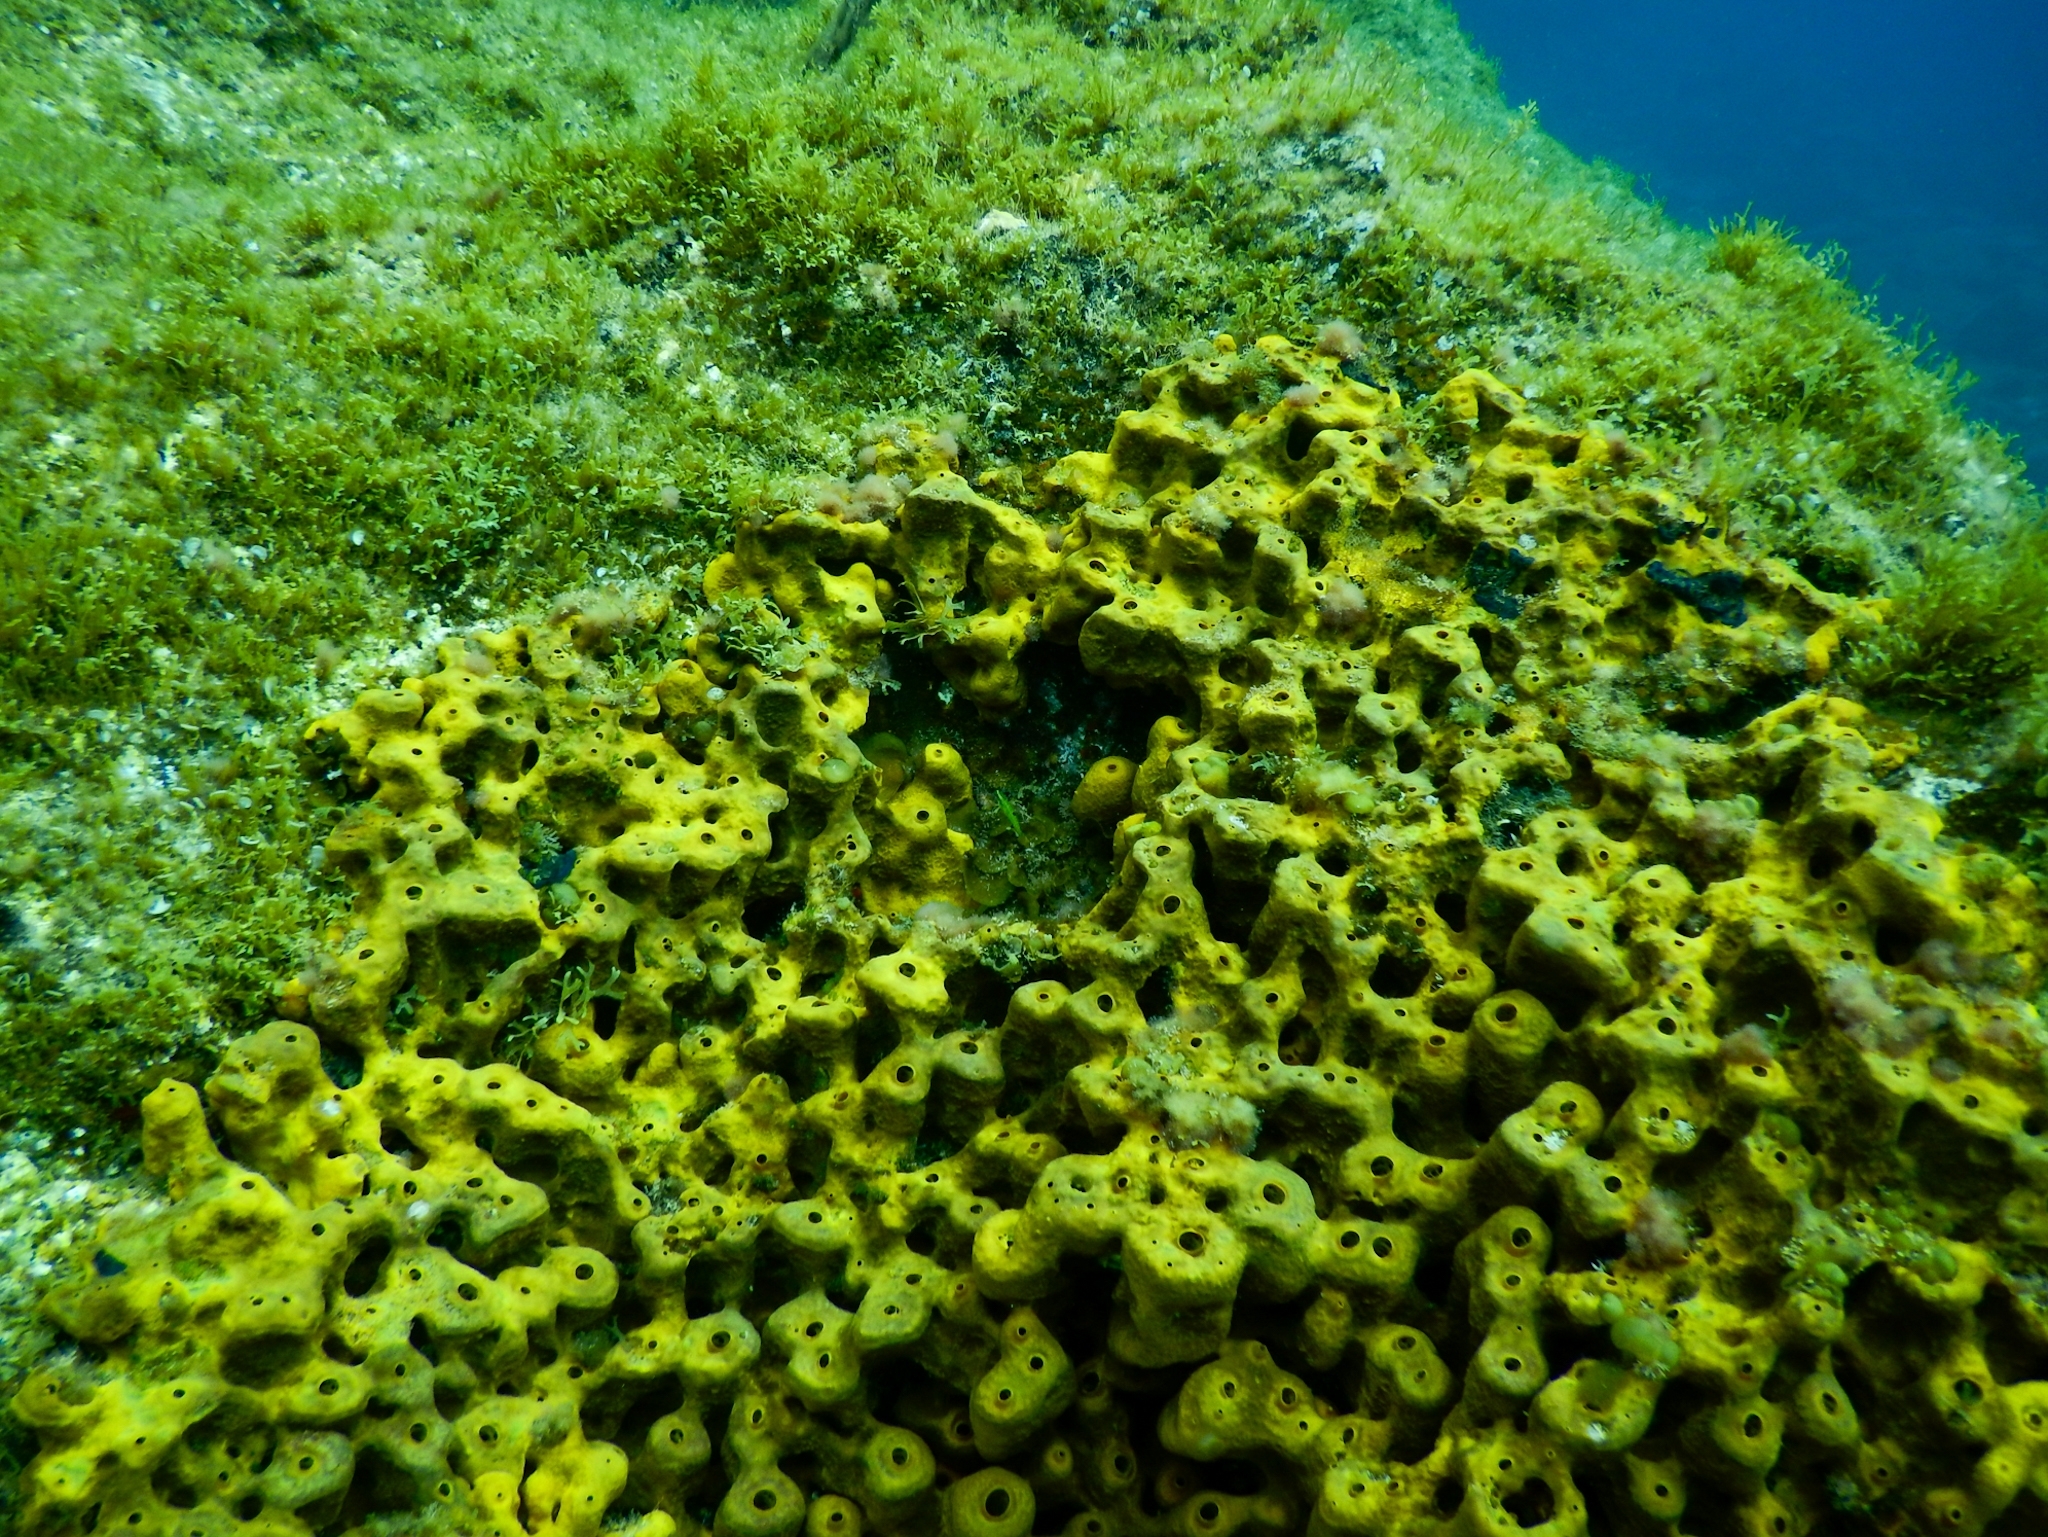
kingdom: Animalia
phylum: Porifera
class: Demospongiae
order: Verongiida
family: Aplysinidae
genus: Aplysina
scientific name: Aplysina aerophoba
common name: Aureate sponge
